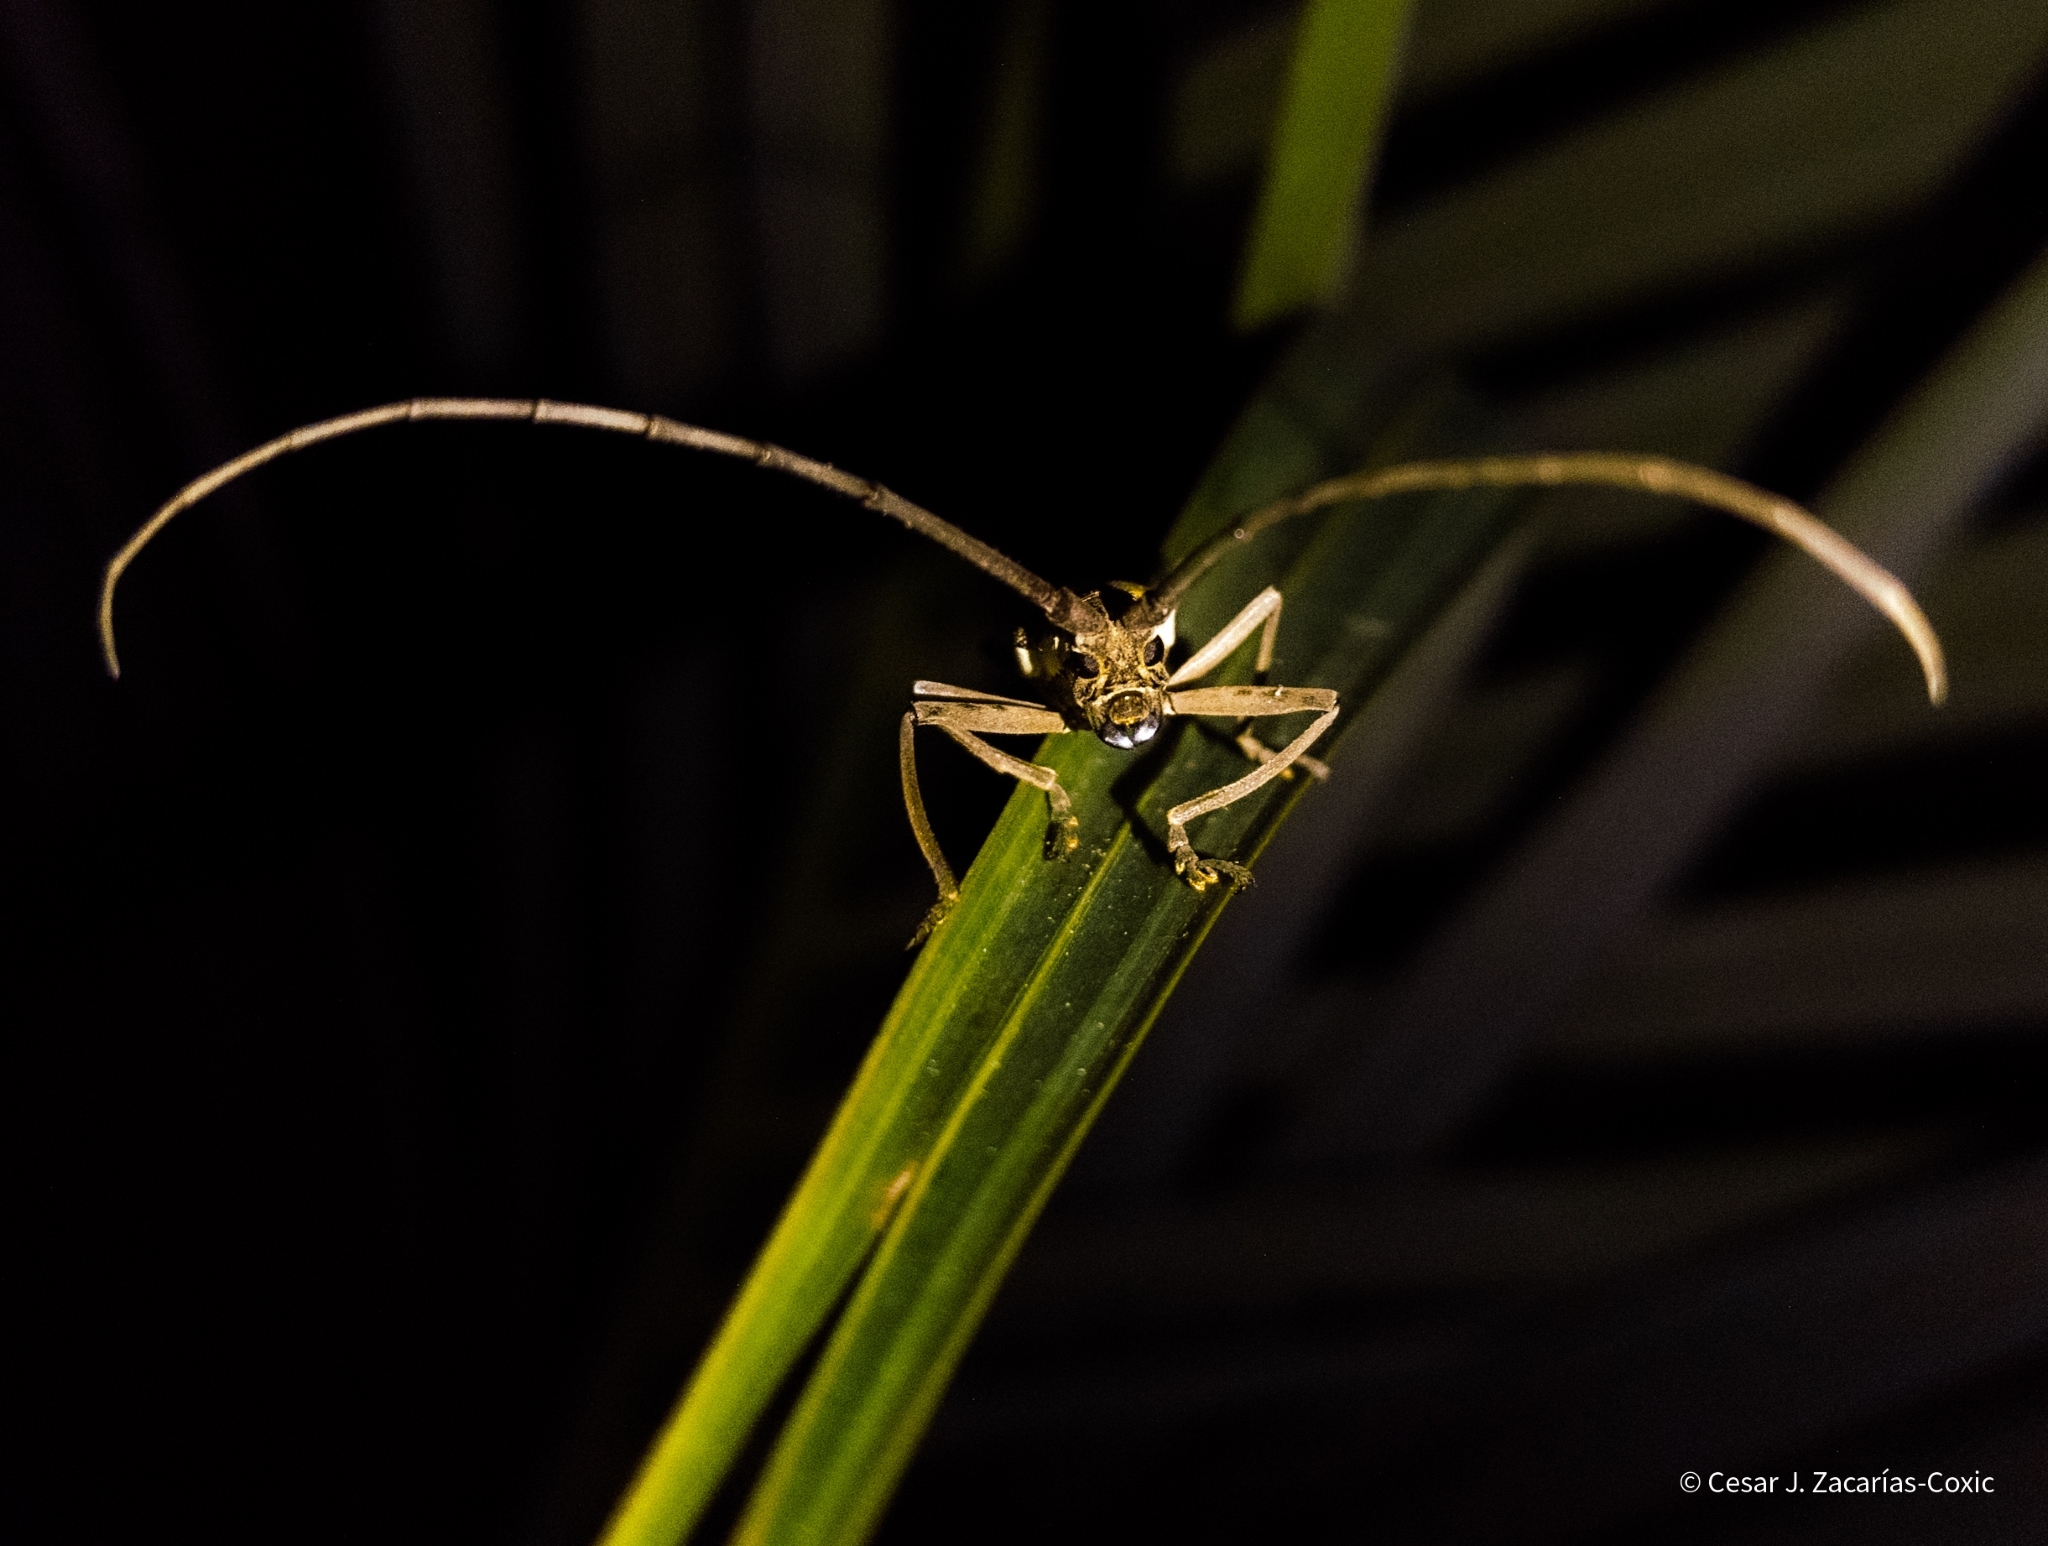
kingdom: Animalia
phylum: Arthropoda
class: Insecta
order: Coleoptera
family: Cerambycidae
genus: Neoptychodes
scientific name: Neoptychodes trilineatus
